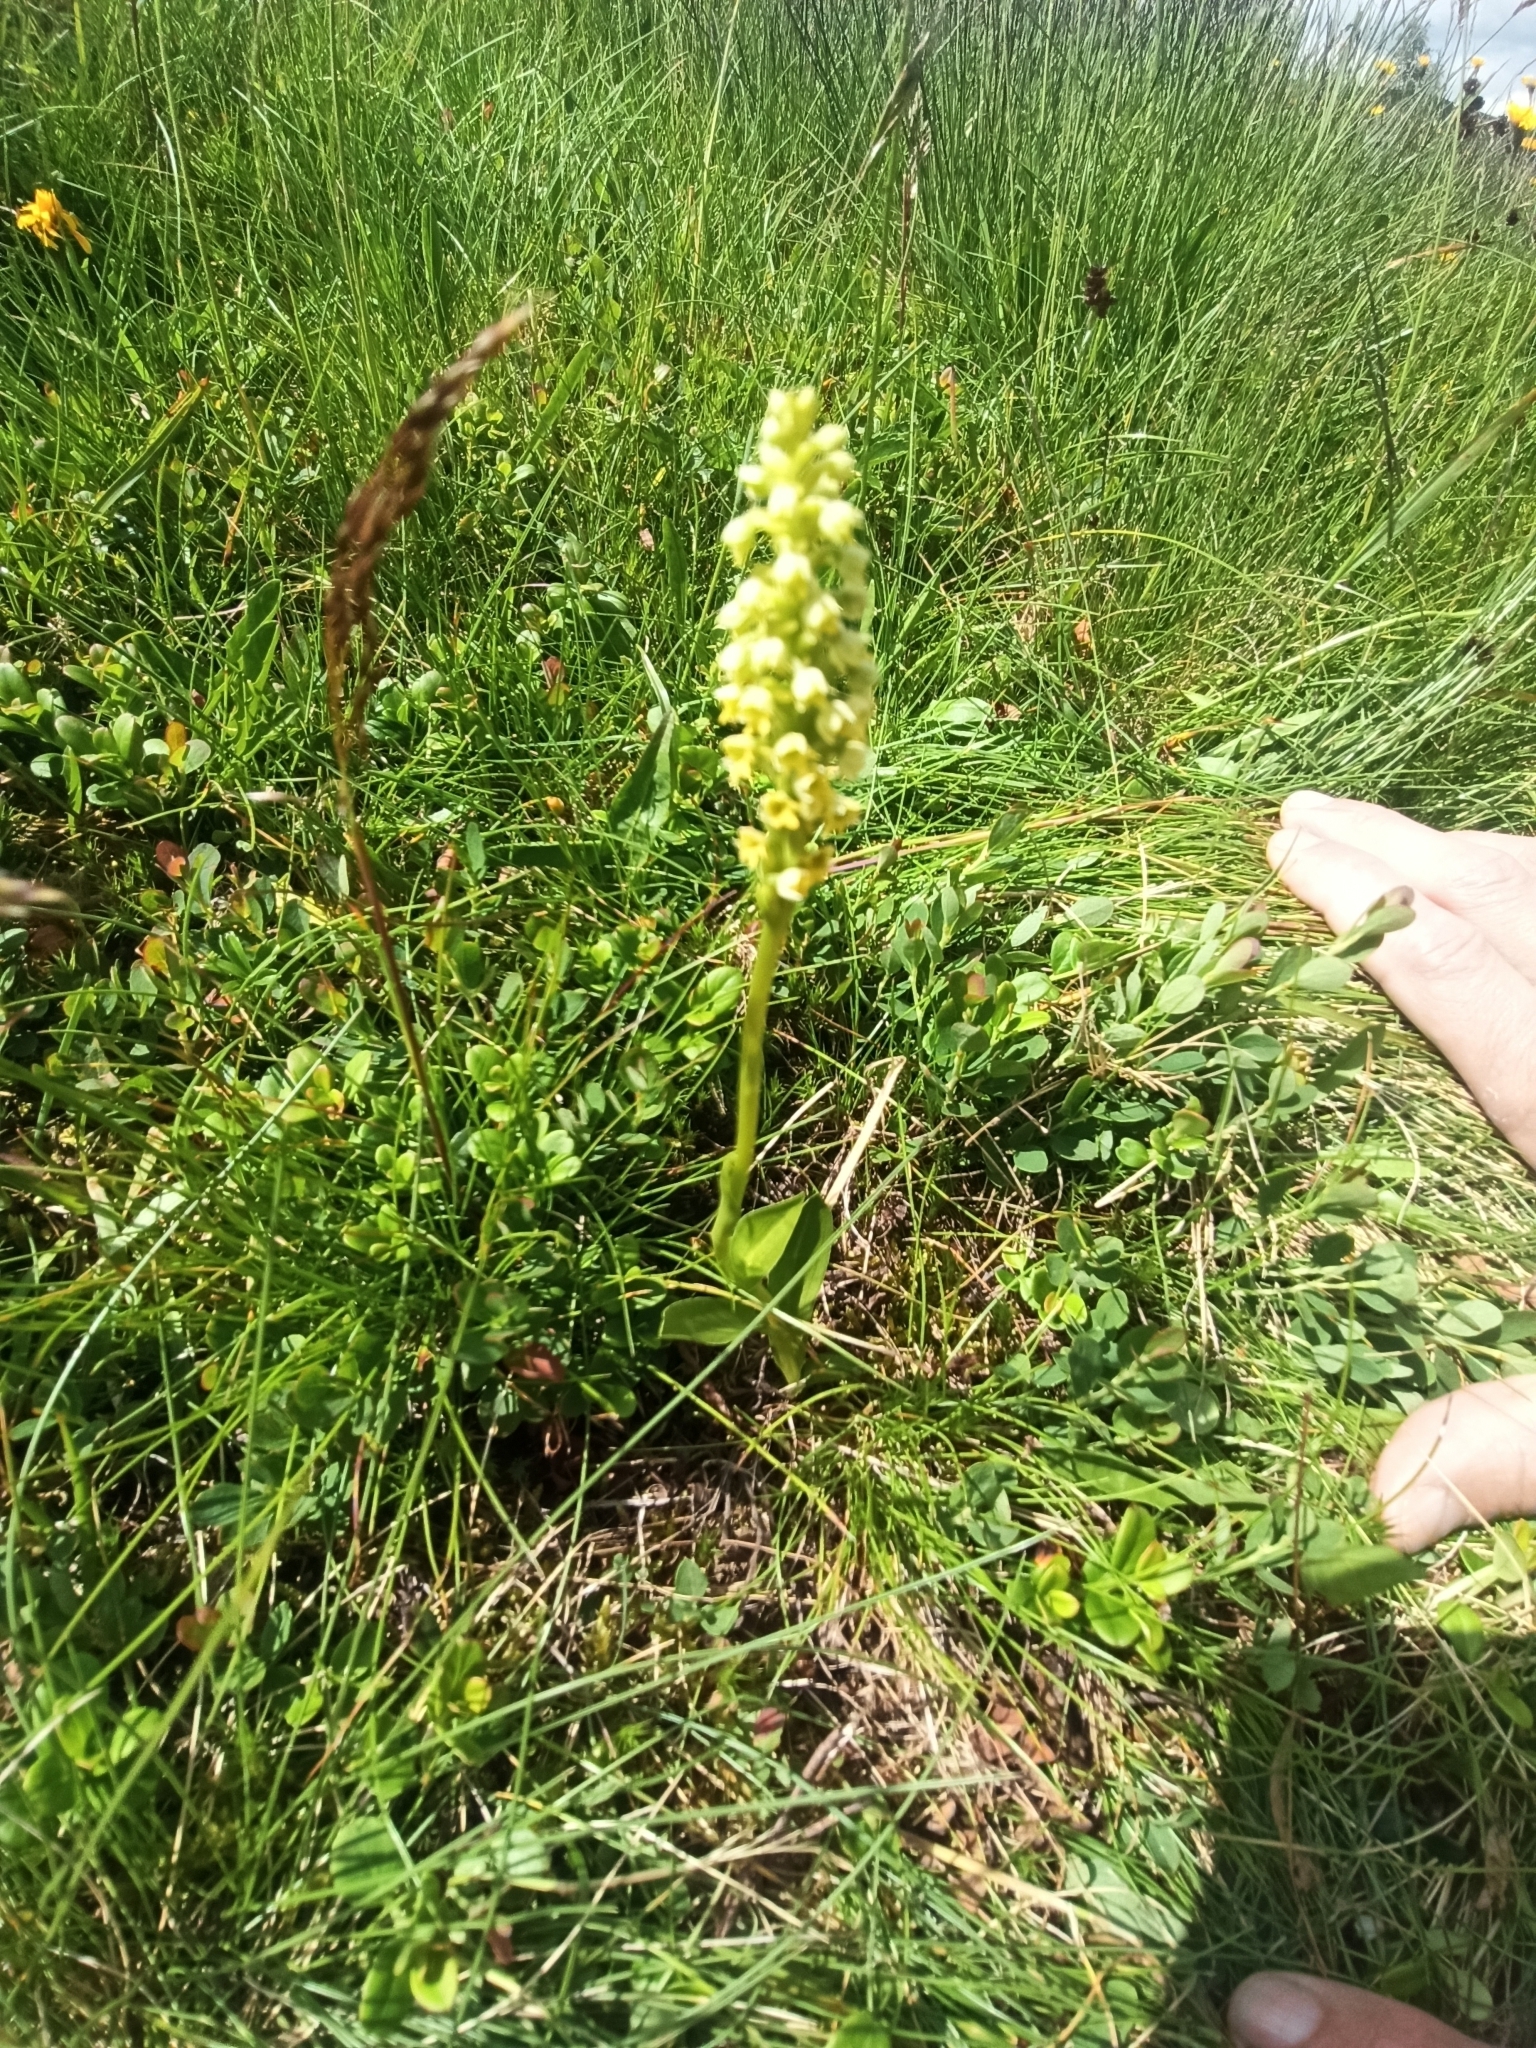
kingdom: Plantae
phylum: Tracheophyta
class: Liliopsida
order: Asparagales
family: Orchidaceae
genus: Pseudorchis
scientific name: Pseudorchis albida
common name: Small-white orchid
